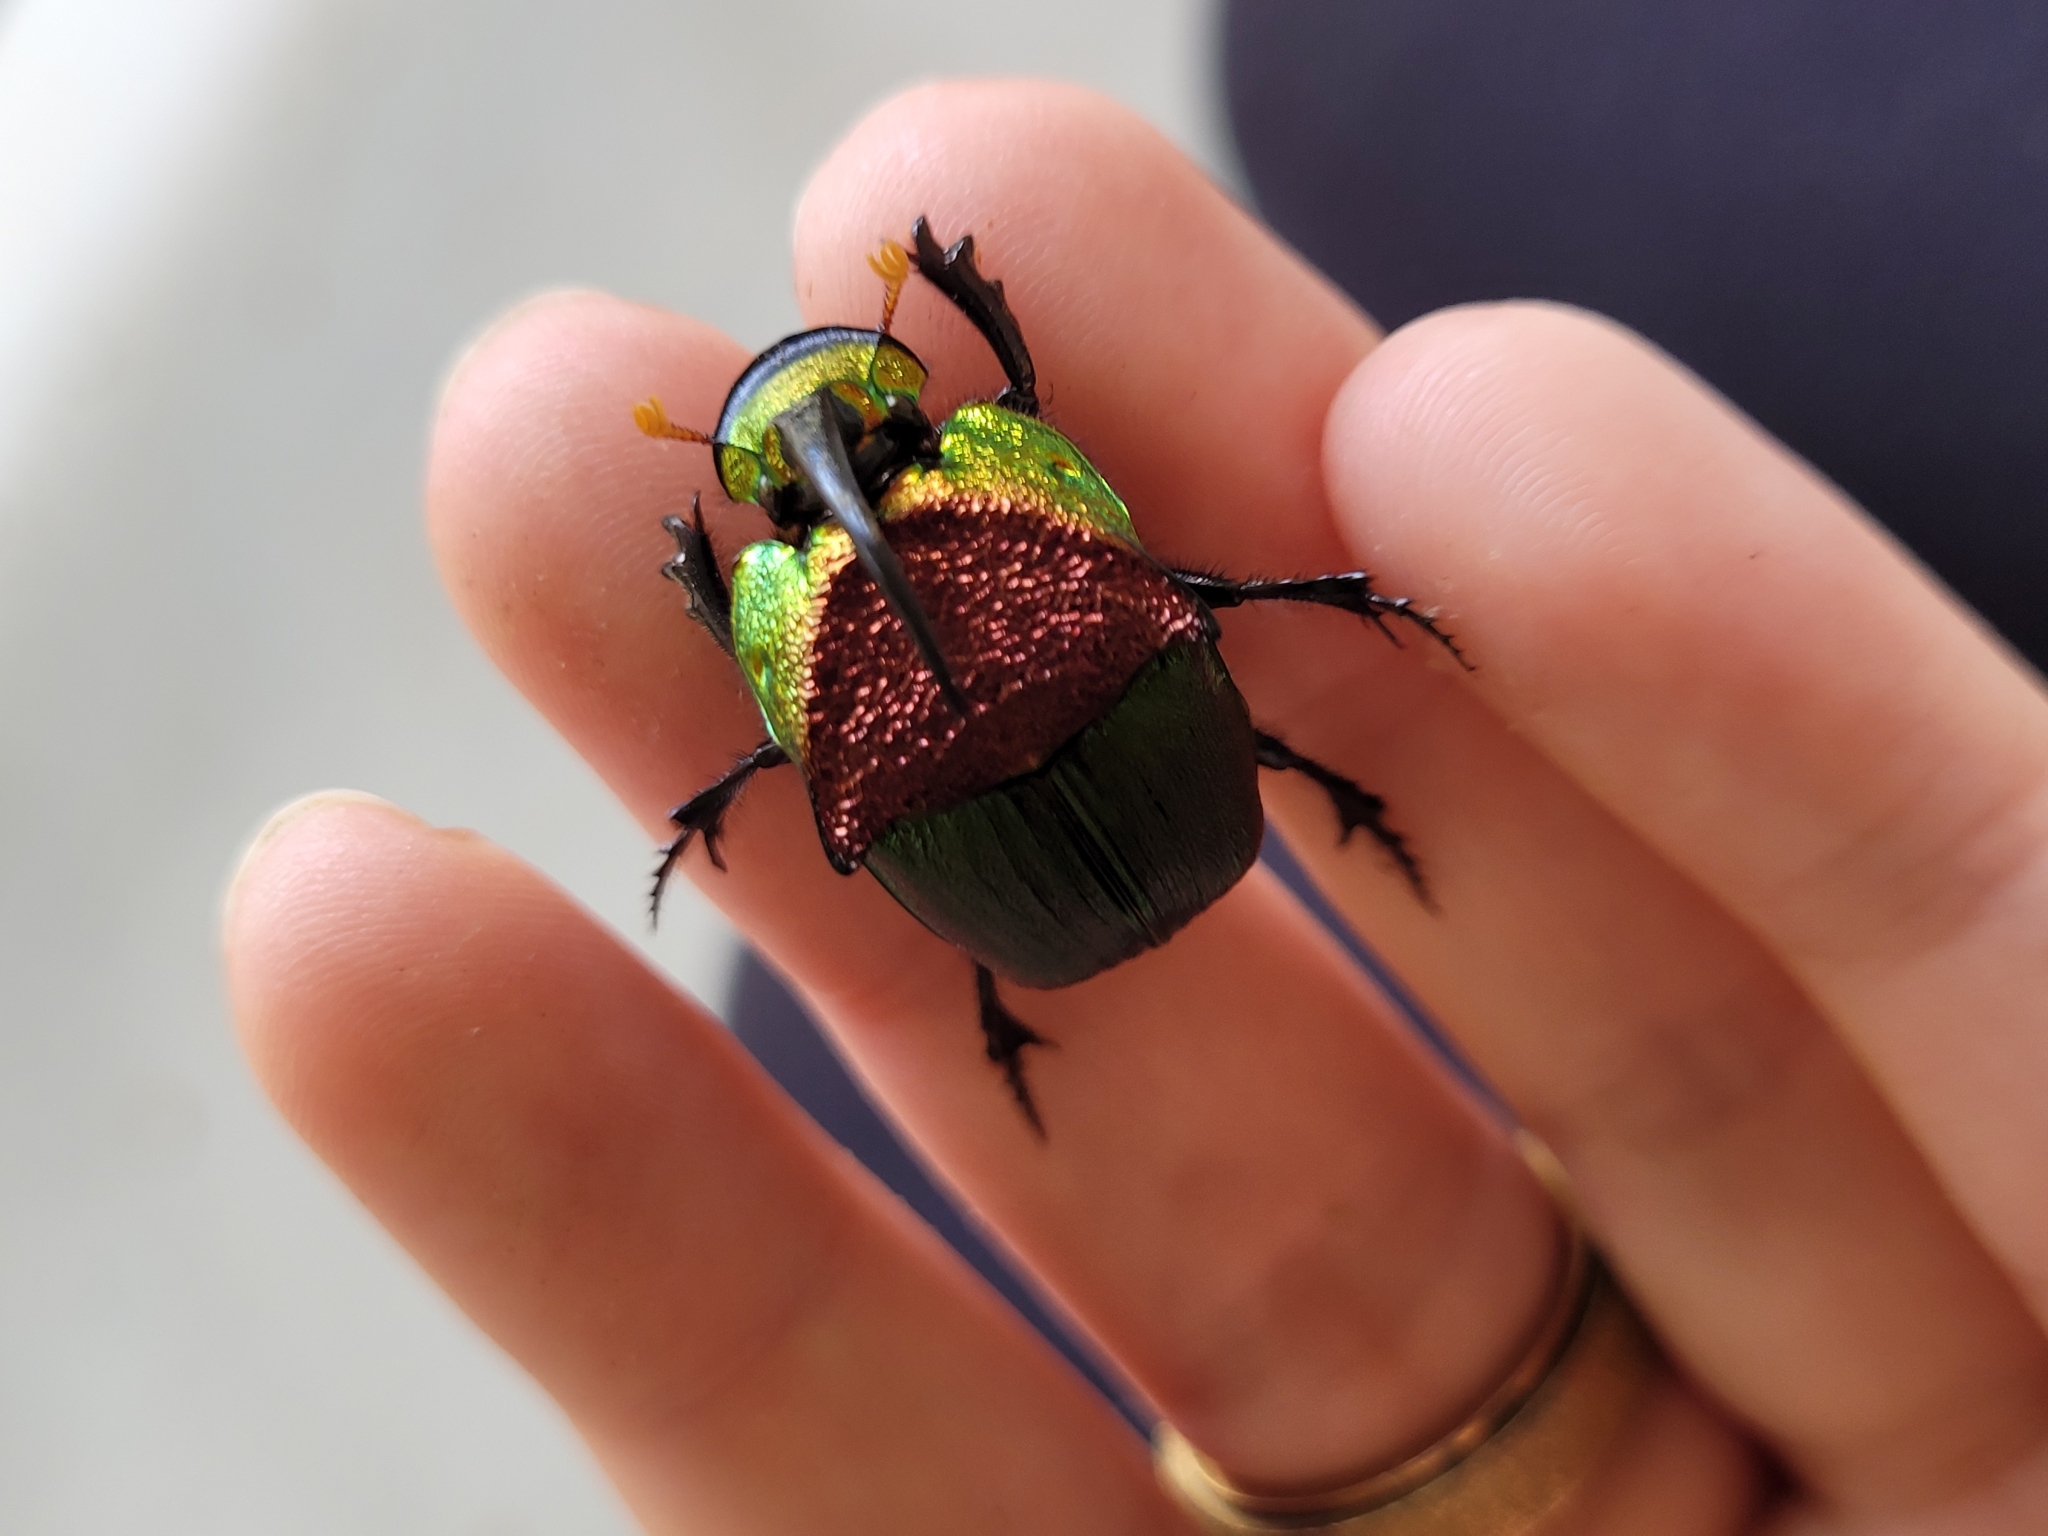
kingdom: Animalia
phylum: Arthropoda
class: Insecta
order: Coleoptera
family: Scarabaeidae
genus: Phanaeus
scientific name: Phanaeus vindex
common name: Rainbow scarab
